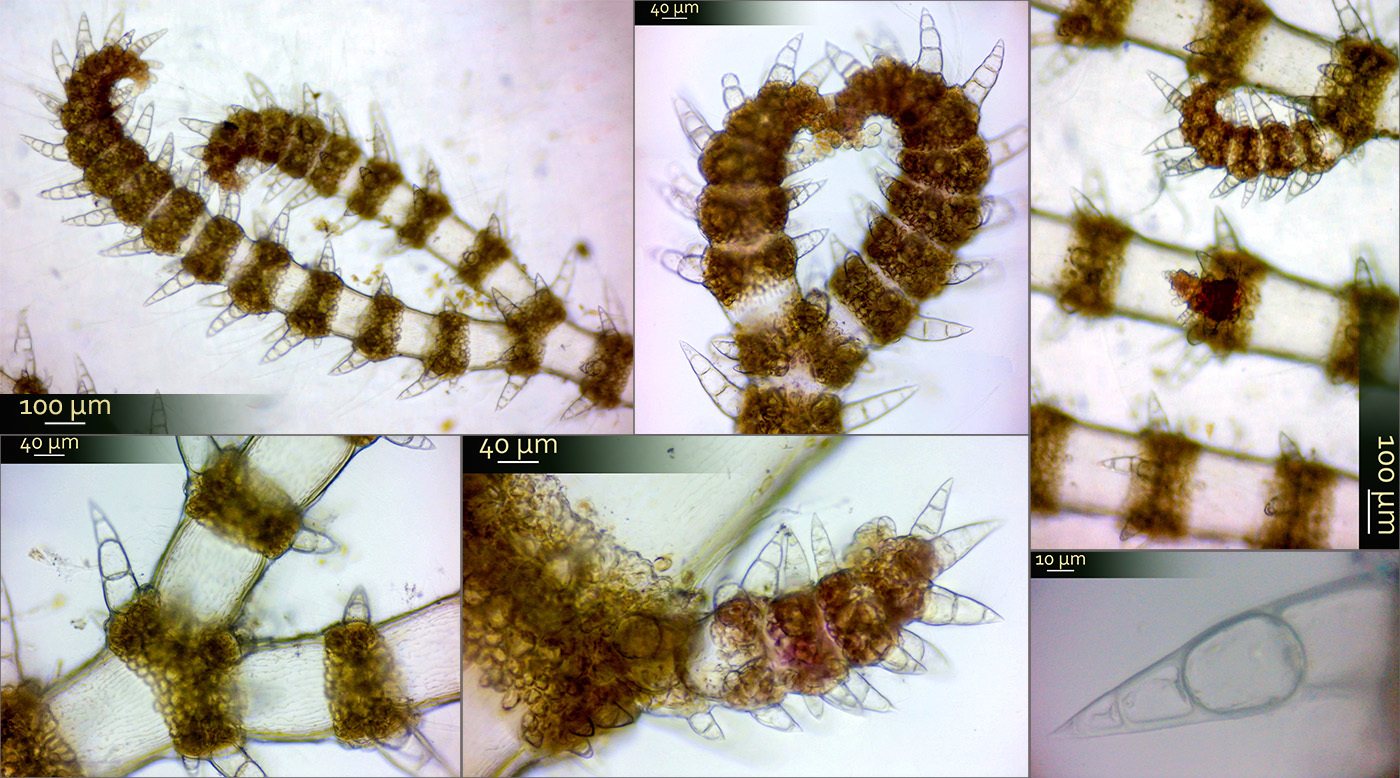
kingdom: Plantae
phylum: Rhodophyta
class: Florideophyceae
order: Ceramiales
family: Ceramiaceae
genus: Ceramium
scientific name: Ceramium shuttleworthianum
